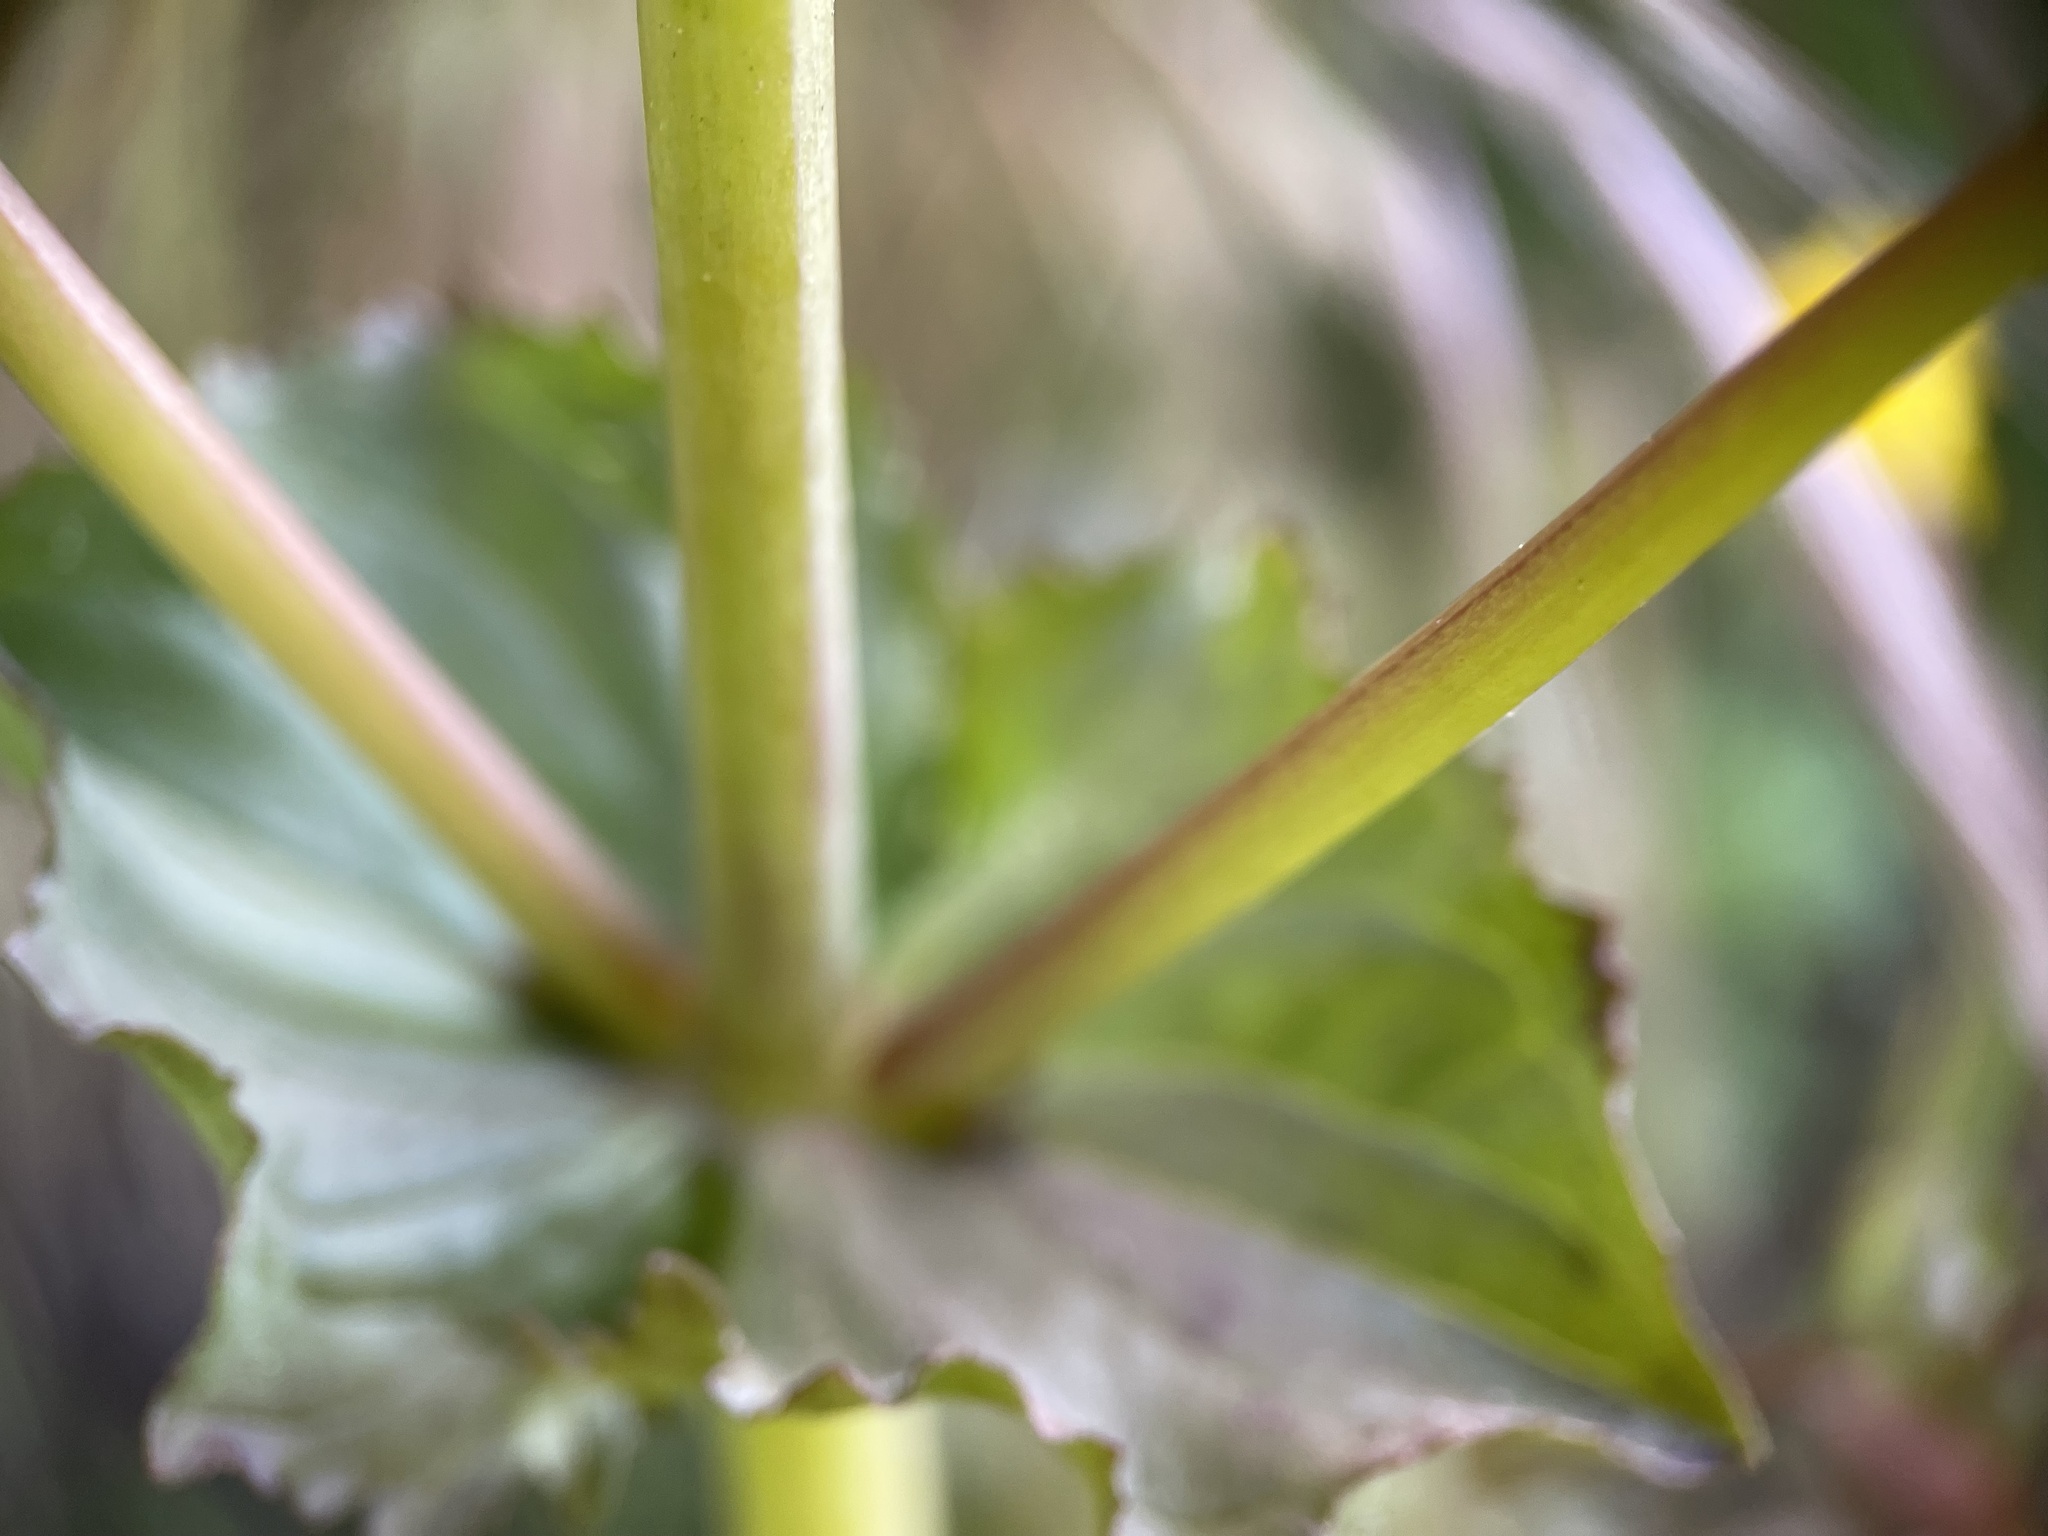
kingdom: Plantae
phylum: Tracheophyta
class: Magnoliopsida
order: Lamiales
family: Phrymaceae
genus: Erythranthe
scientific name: Erythranthe guttata
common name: Monkeyflower
